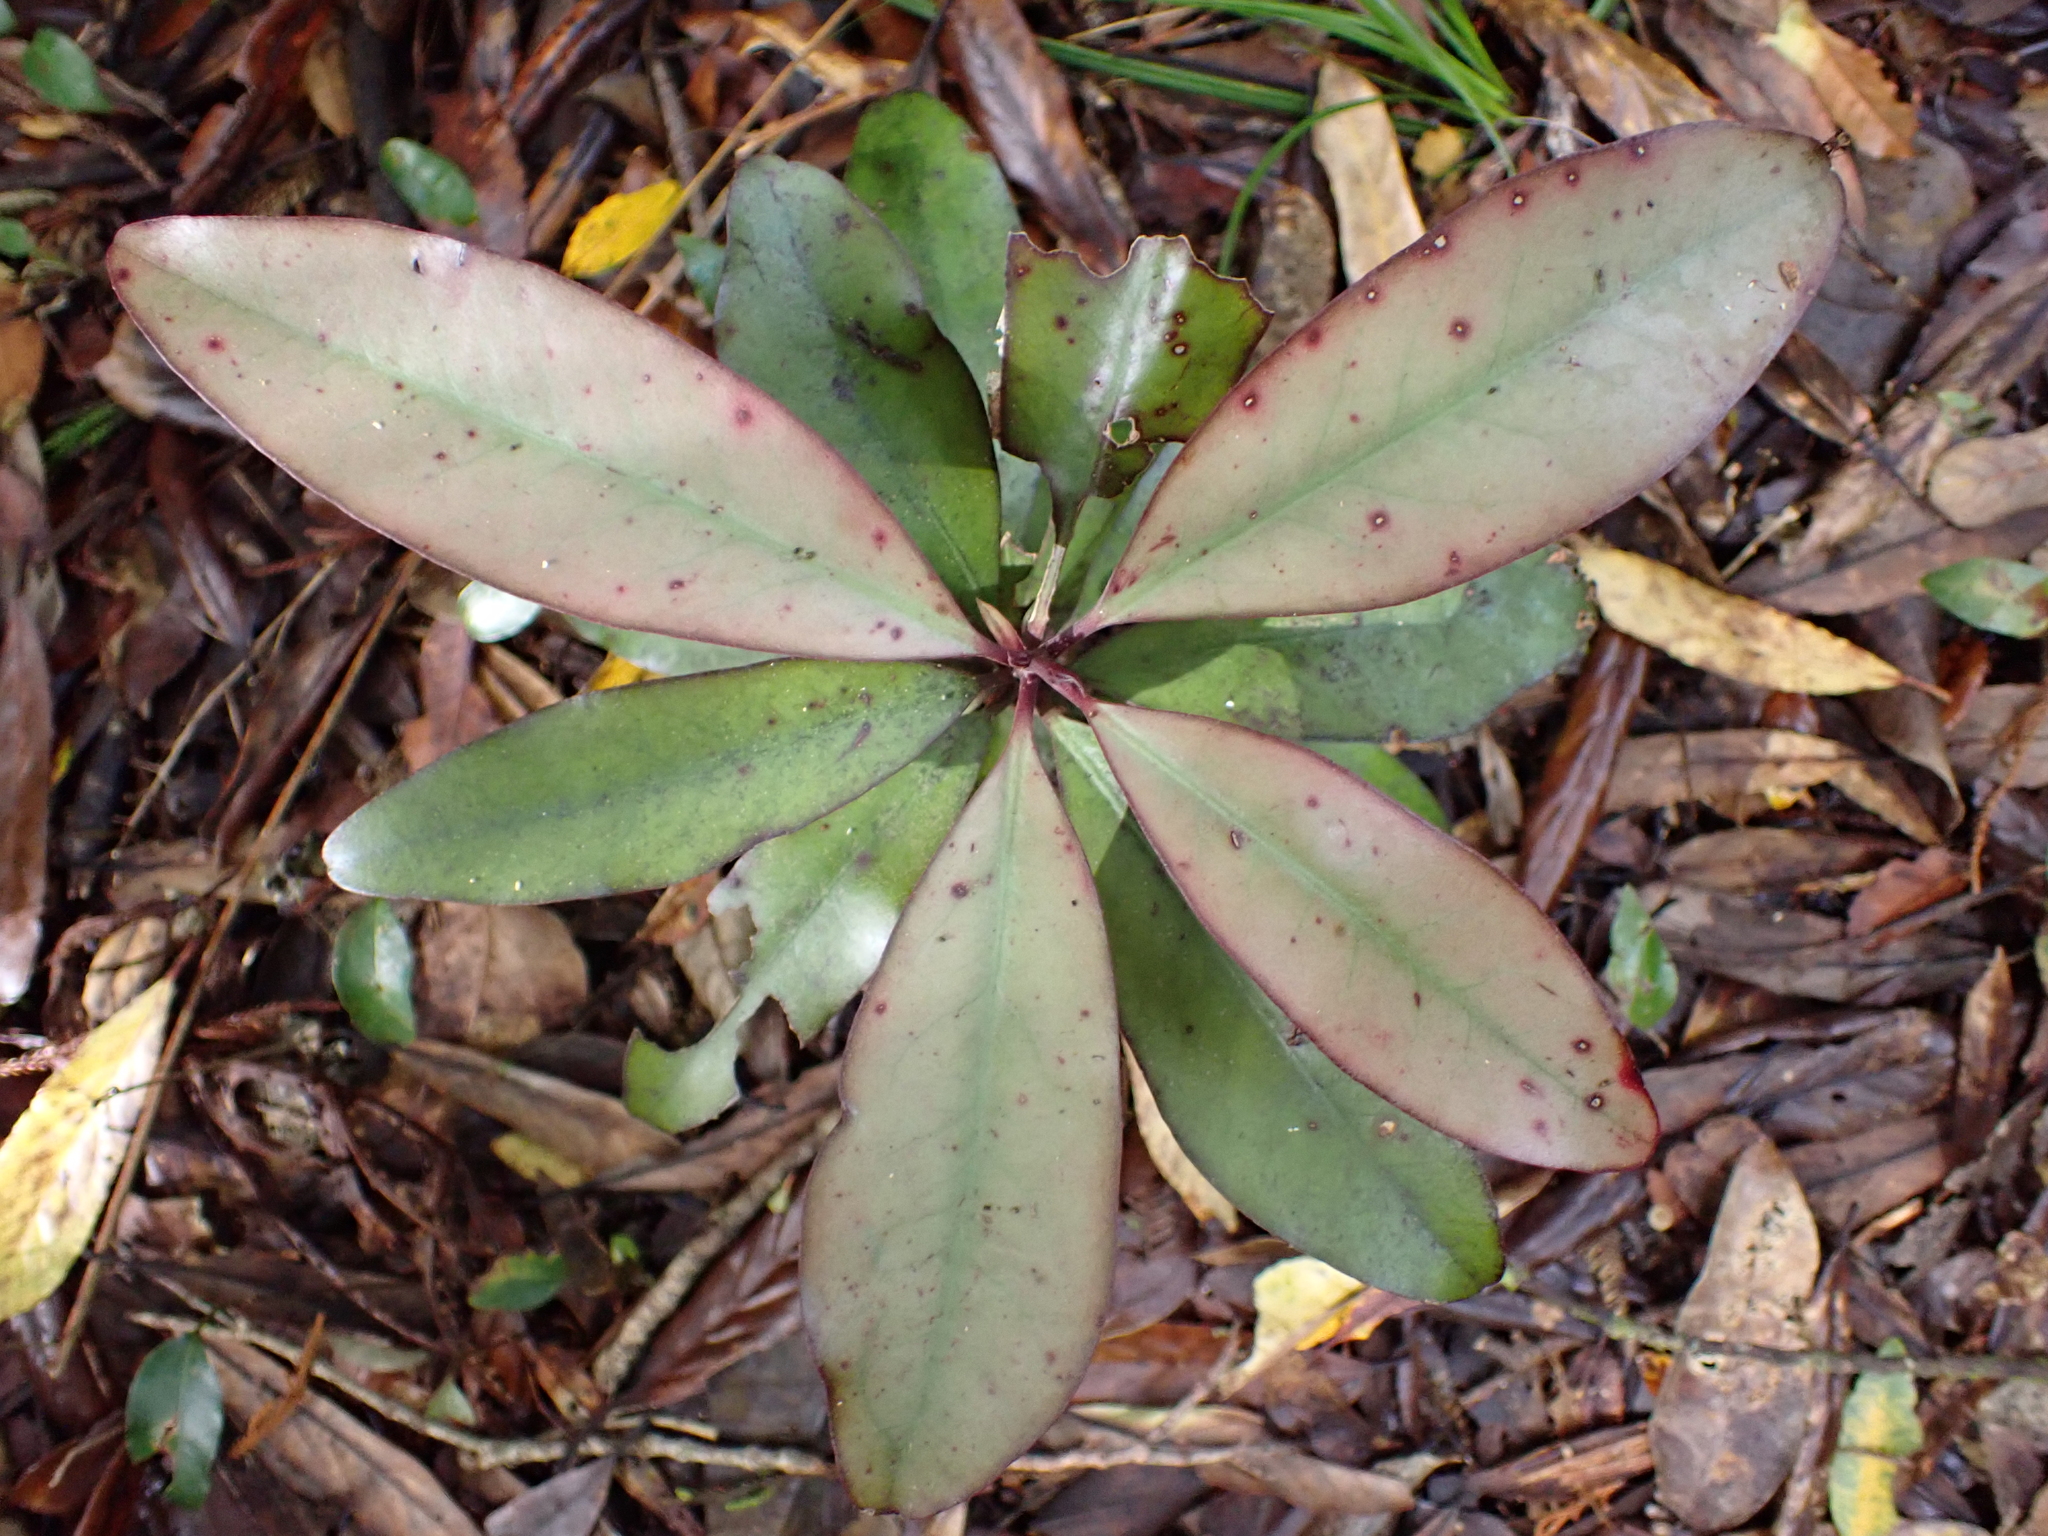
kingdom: Plantae
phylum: Tracheophyta
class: Magnoliopsida
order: Canellales
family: Winteraceae
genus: Pseudowintera
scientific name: Pseudowintera colorata
